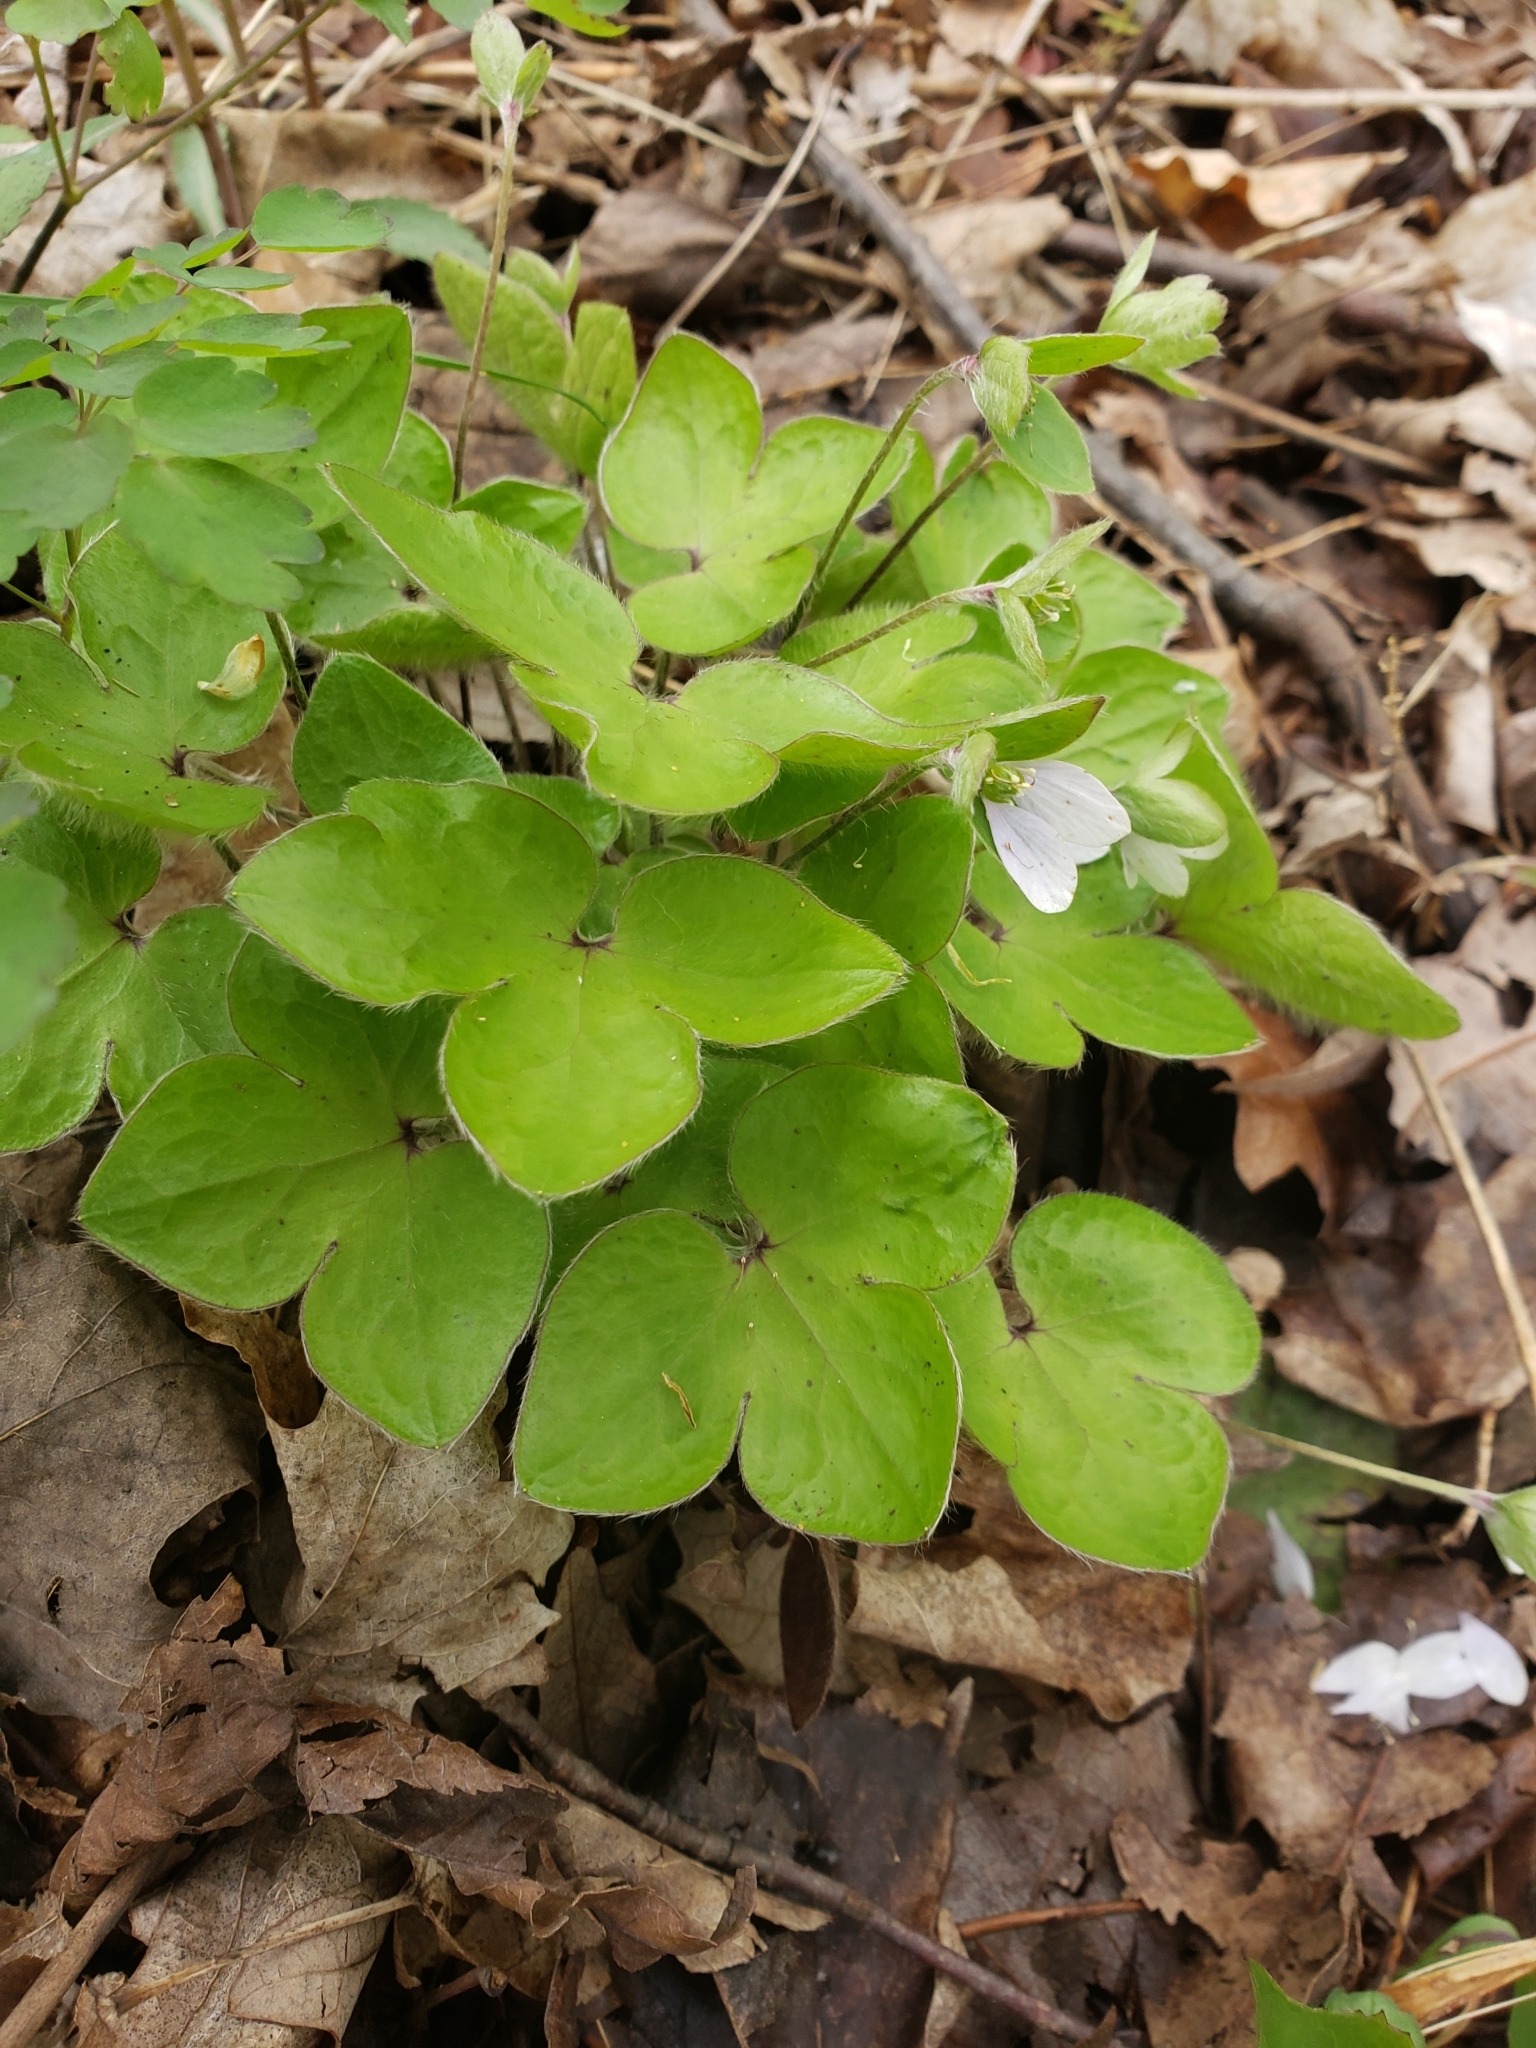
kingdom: Plantae
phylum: Tracheophyta
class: Magnoliopsida
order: Ranunculales
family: Ranunculaceae
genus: Hepatica
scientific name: Hepatica acutiloba
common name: Sharp-lobed hepatica
